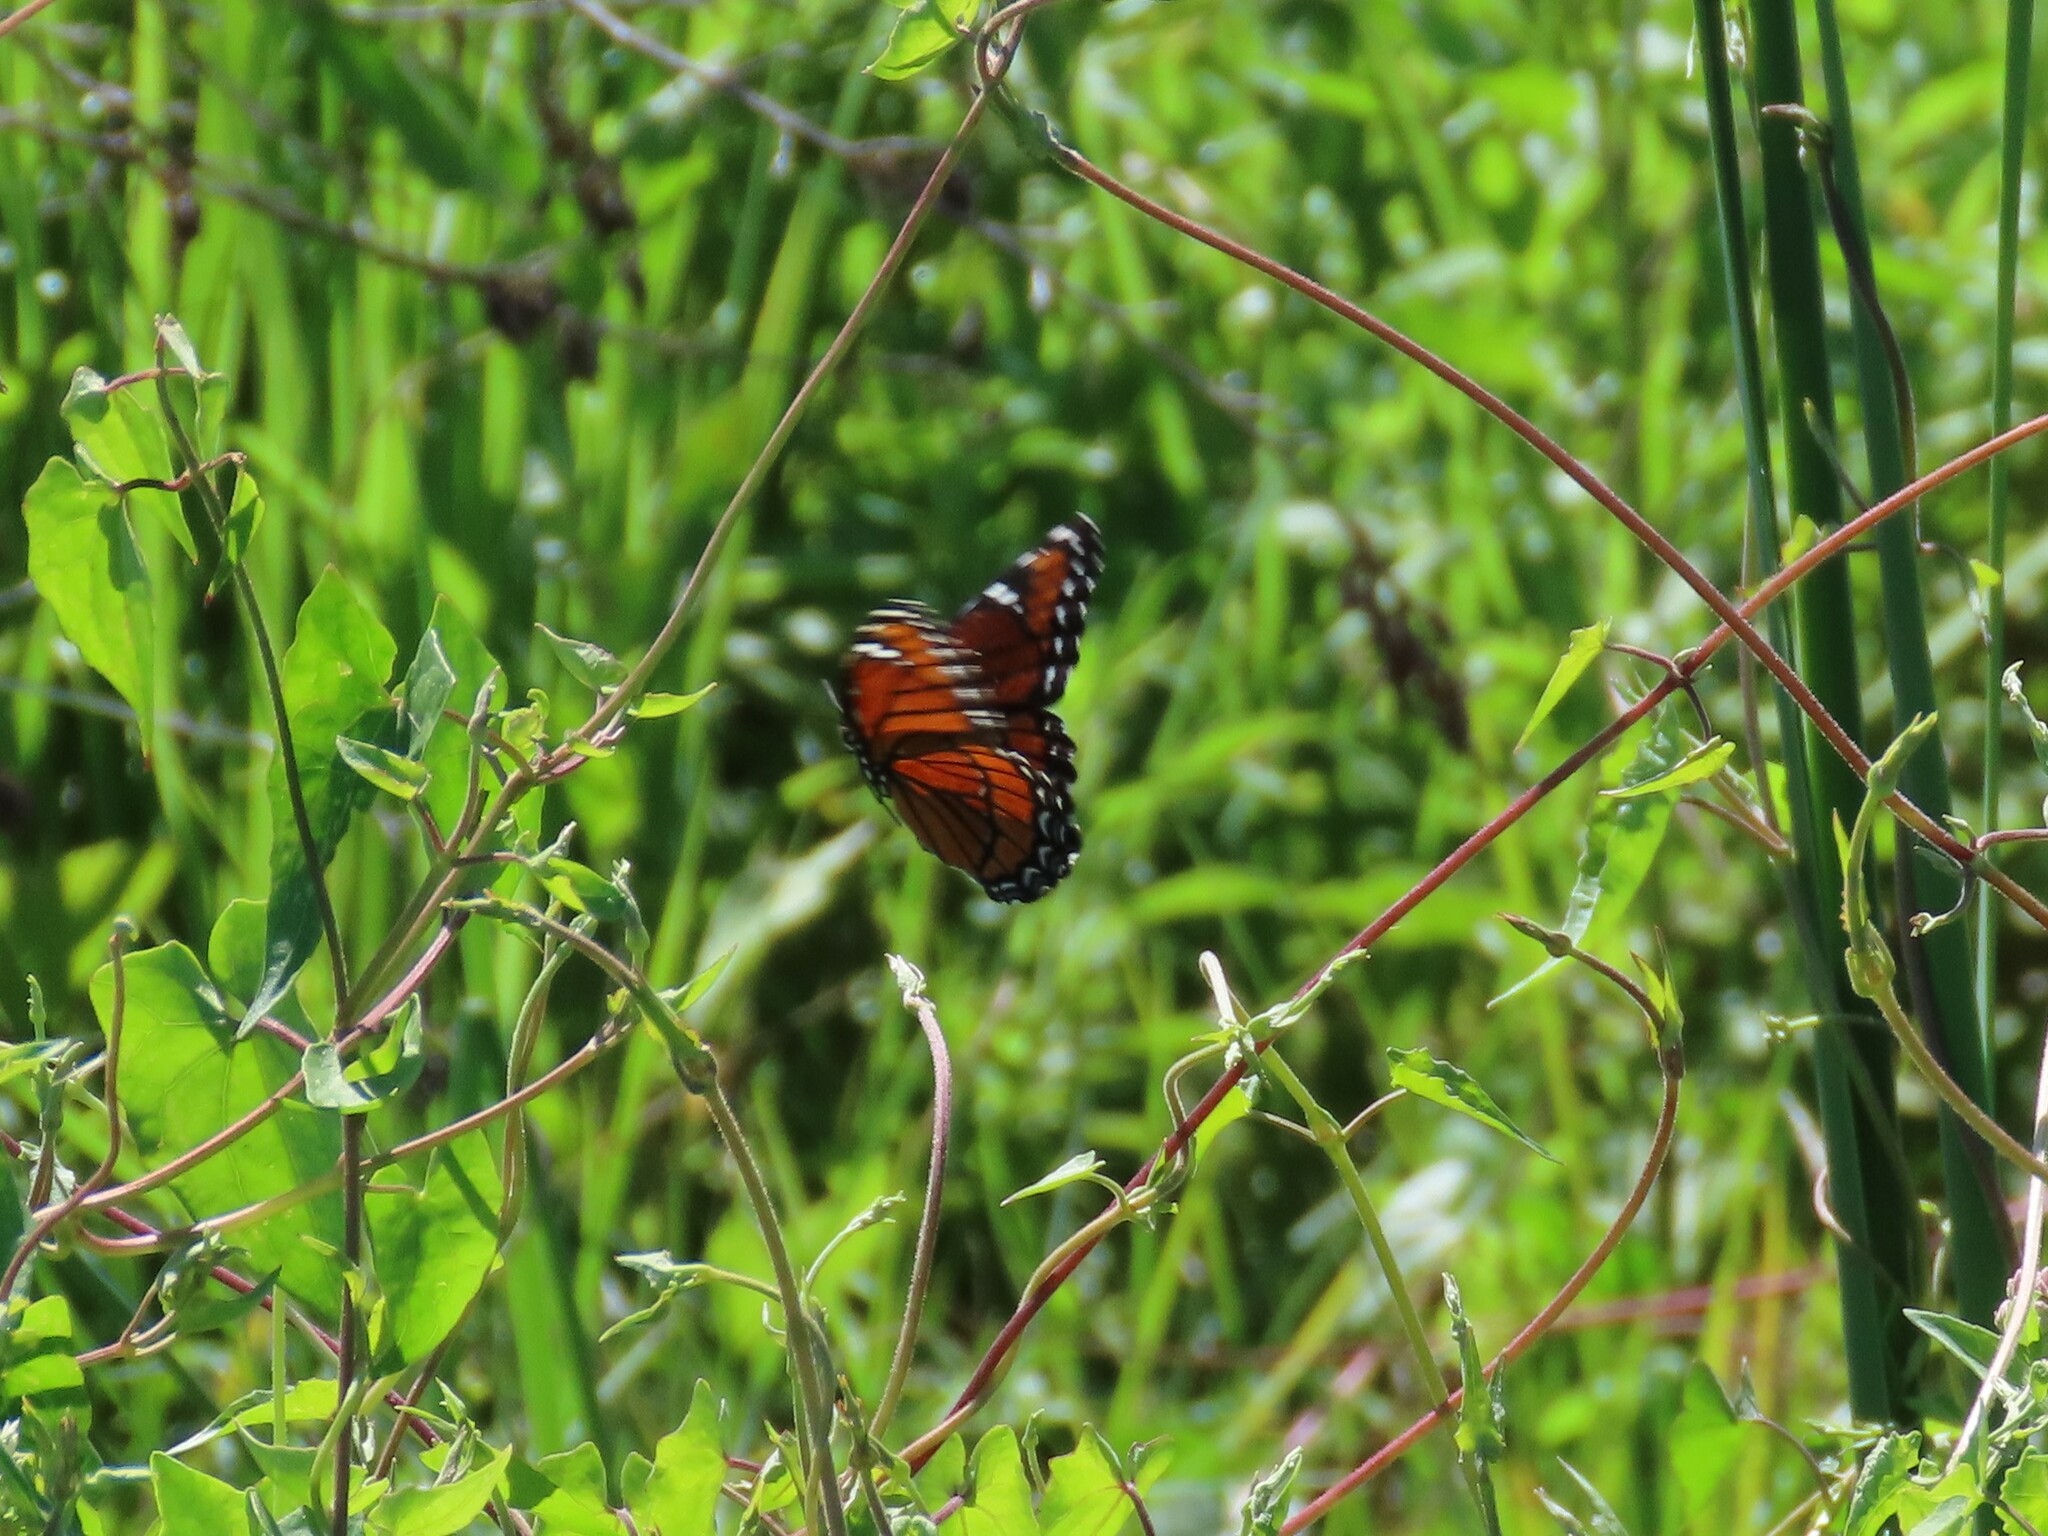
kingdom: Animalia
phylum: Arthropoda
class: Insecta
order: Lepidoptera
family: Nymphalidae
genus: Limenitis
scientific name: Limenitis archippus
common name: Viceroy
